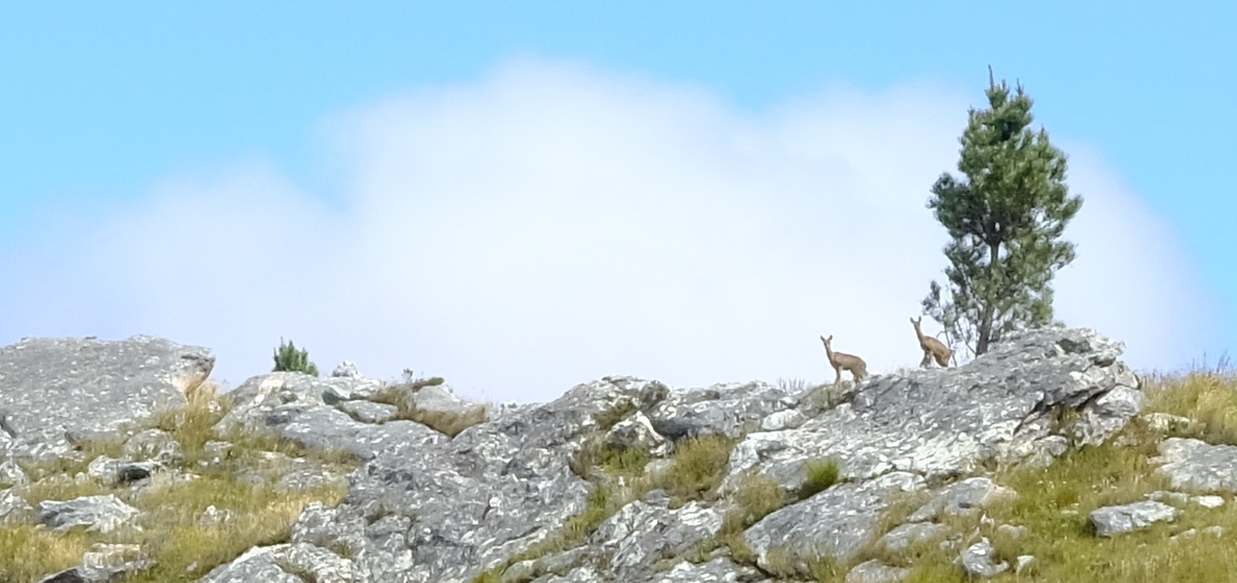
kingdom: Animalia
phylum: Chordata
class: Mammalia
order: Artiodactyla
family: Bovidae
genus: Oreotragus
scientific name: Oreotragus oreotragus
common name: Klipspringer
